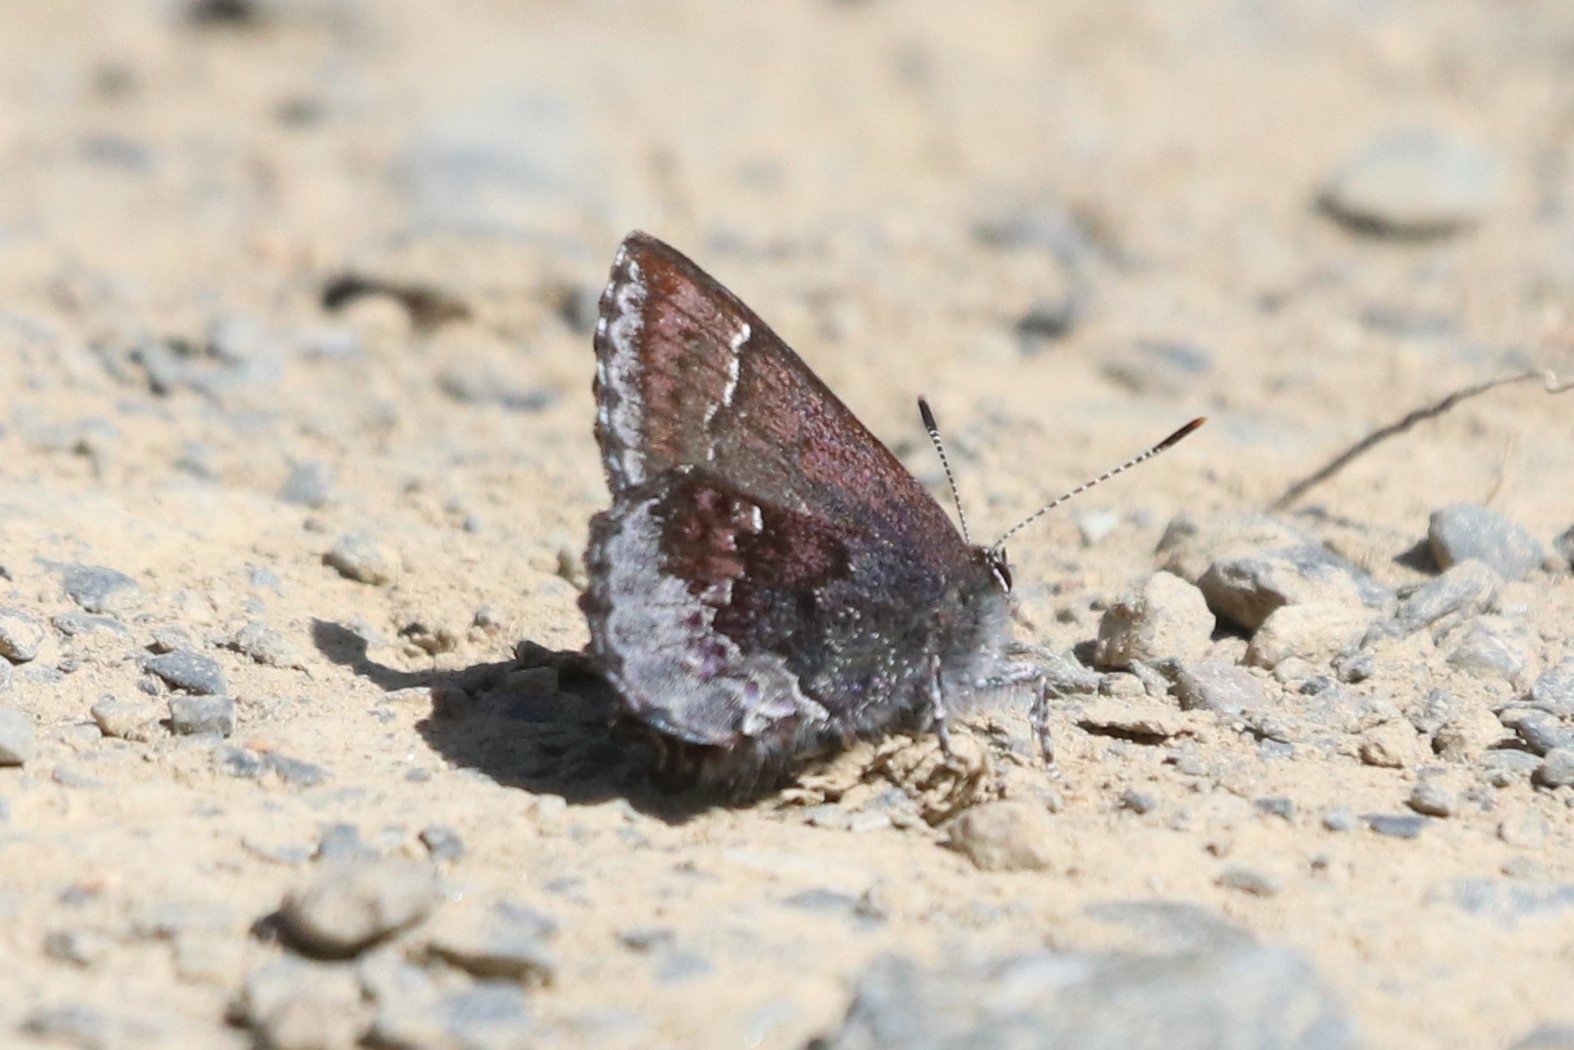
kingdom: Animalia
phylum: Arthropoda
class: Insecta
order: Lepidoptera
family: Lycaenidae
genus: Callophrys
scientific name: Callophrys polios
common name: Hoary elfin
